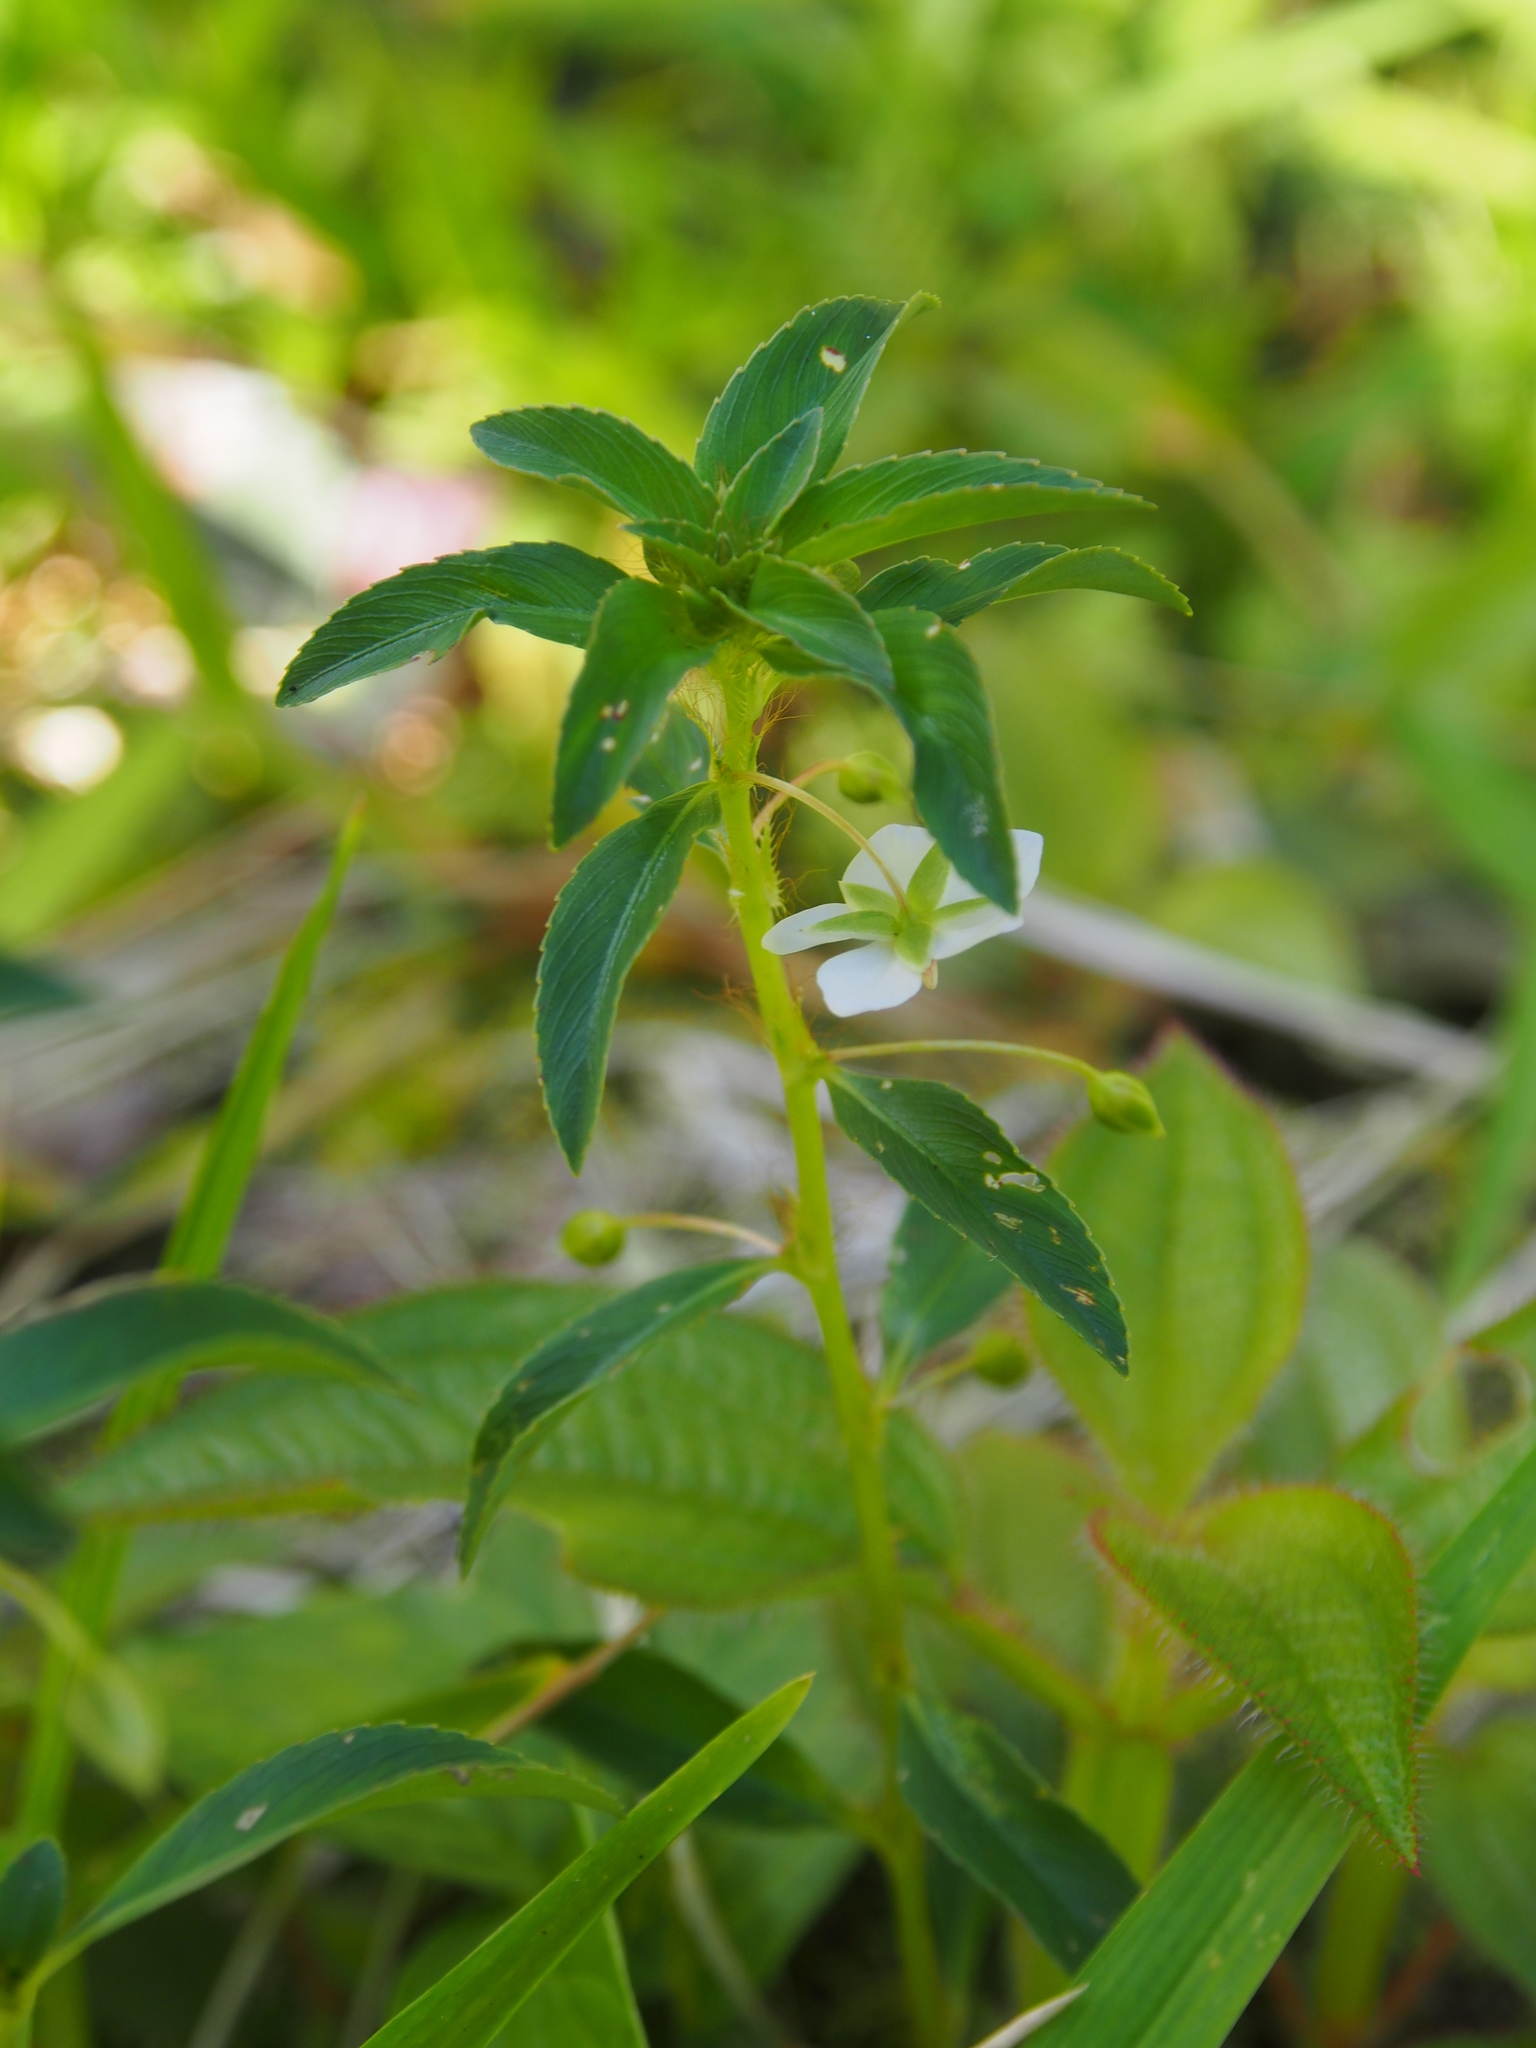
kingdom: Plantae
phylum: Tracheophyta
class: Magnoliopsida
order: Malpighiales
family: Ochnaceae
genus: Sauvagesia
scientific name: Sauvagesia erecta
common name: Creole tea
